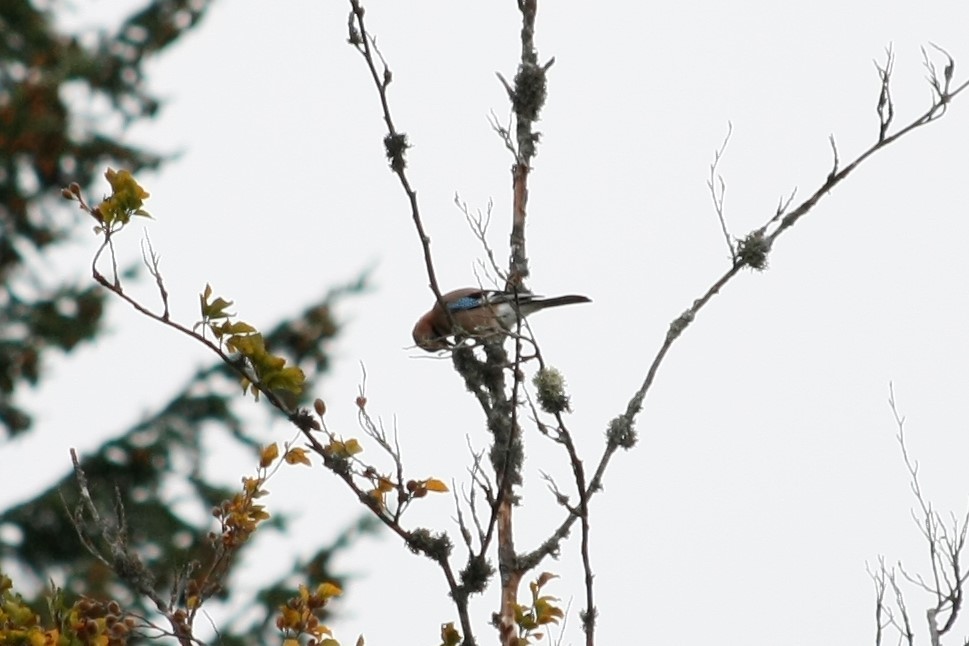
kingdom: Animalia
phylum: Chordata
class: Aves
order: Passeriformes
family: Corvidae
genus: Garrulus
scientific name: Garrulus glandarius
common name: Eurasian jay
